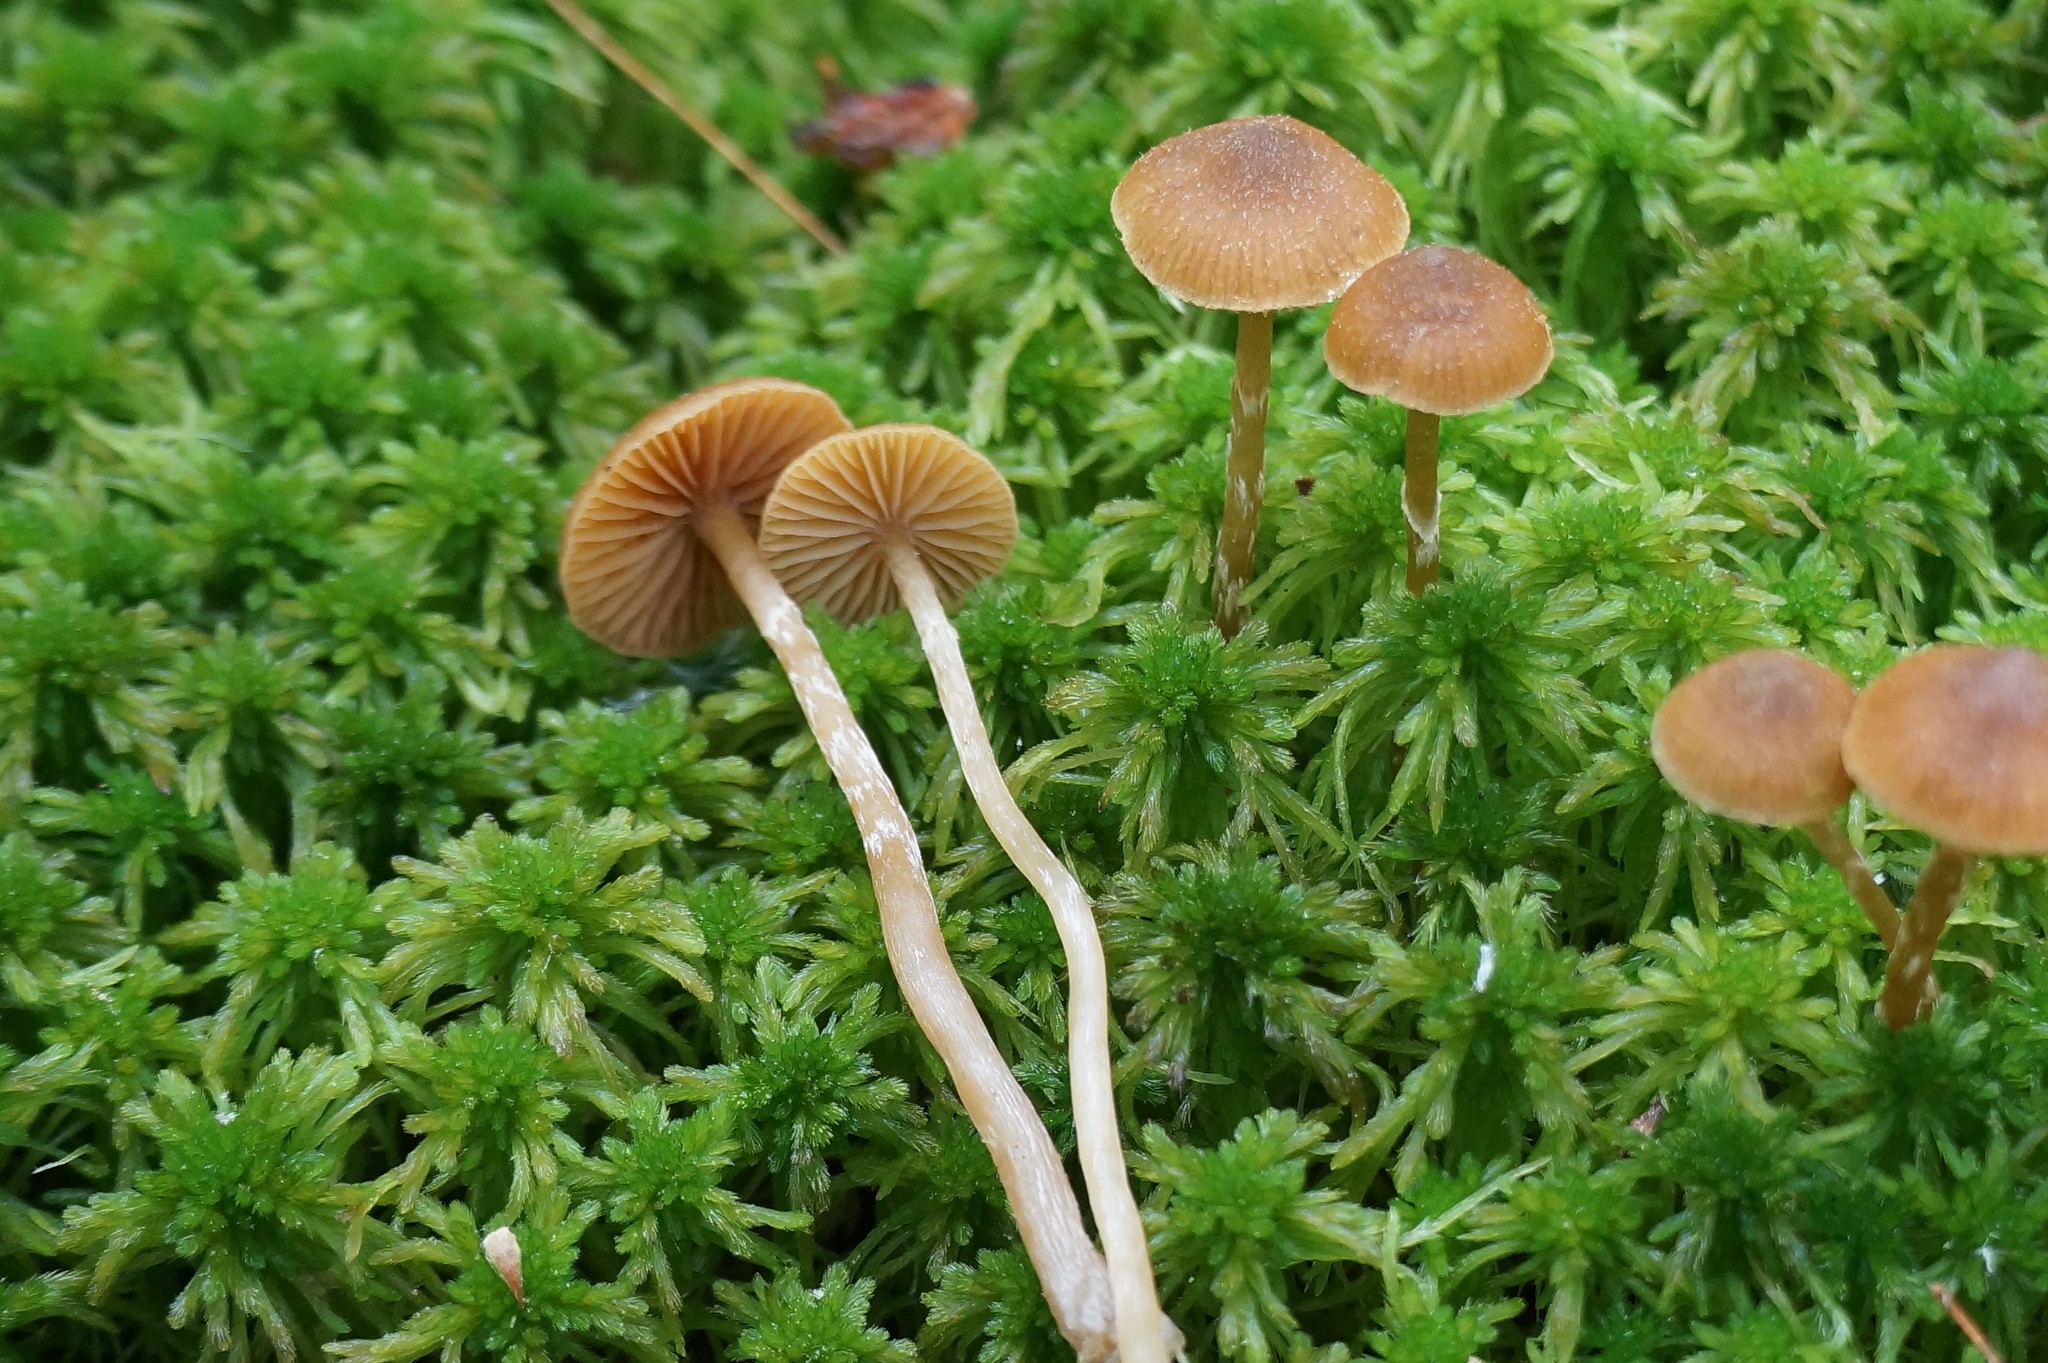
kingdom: Fungi
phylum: Basidiomycota
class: Agaricomycetes
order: Agaricales
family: Hymenogastraceae
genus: Galerina
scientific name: Galerina paludosa
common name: Bog bell
